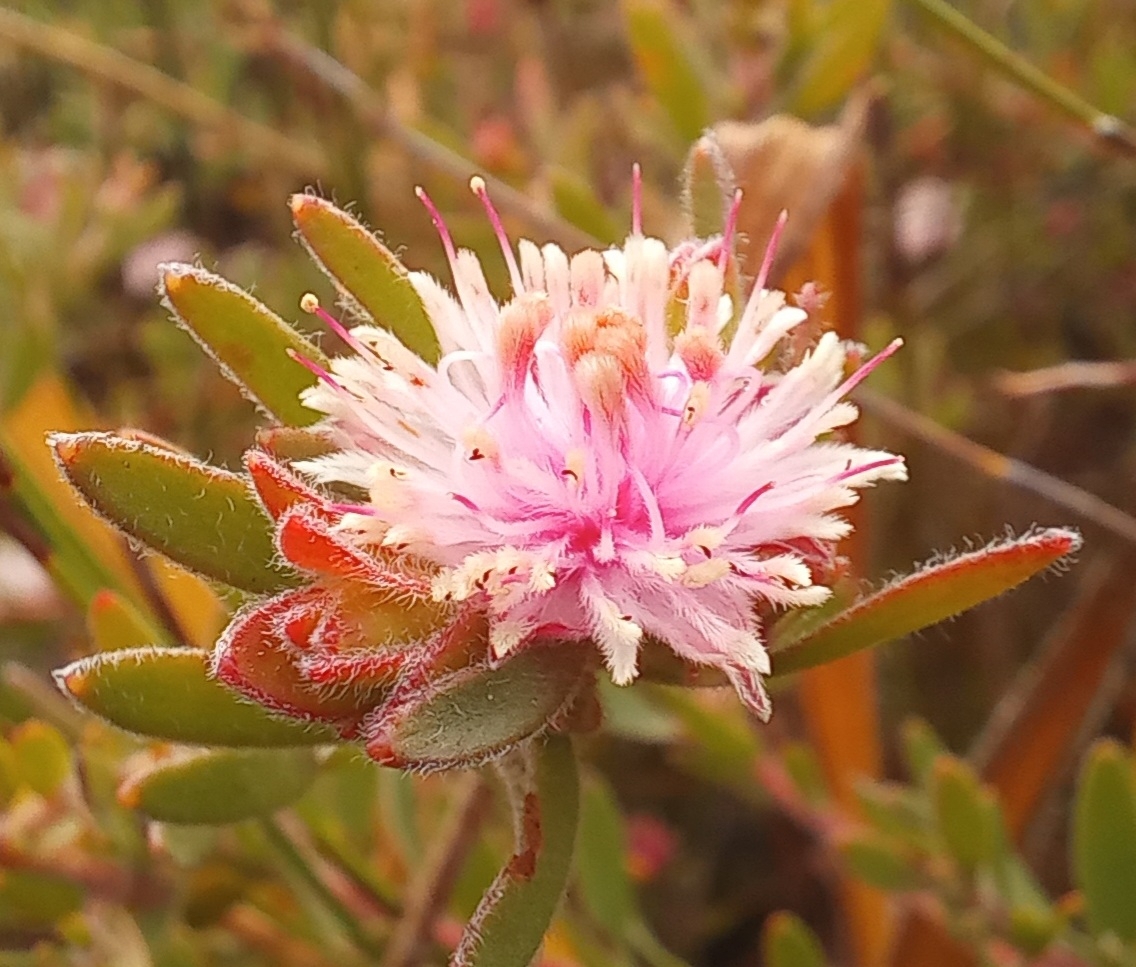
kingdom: Plantae
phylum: Tracheophyta
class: Magnoliopsida
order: Proteales
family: Proteaceae
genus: Diastella
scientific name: Diastella divaricata
